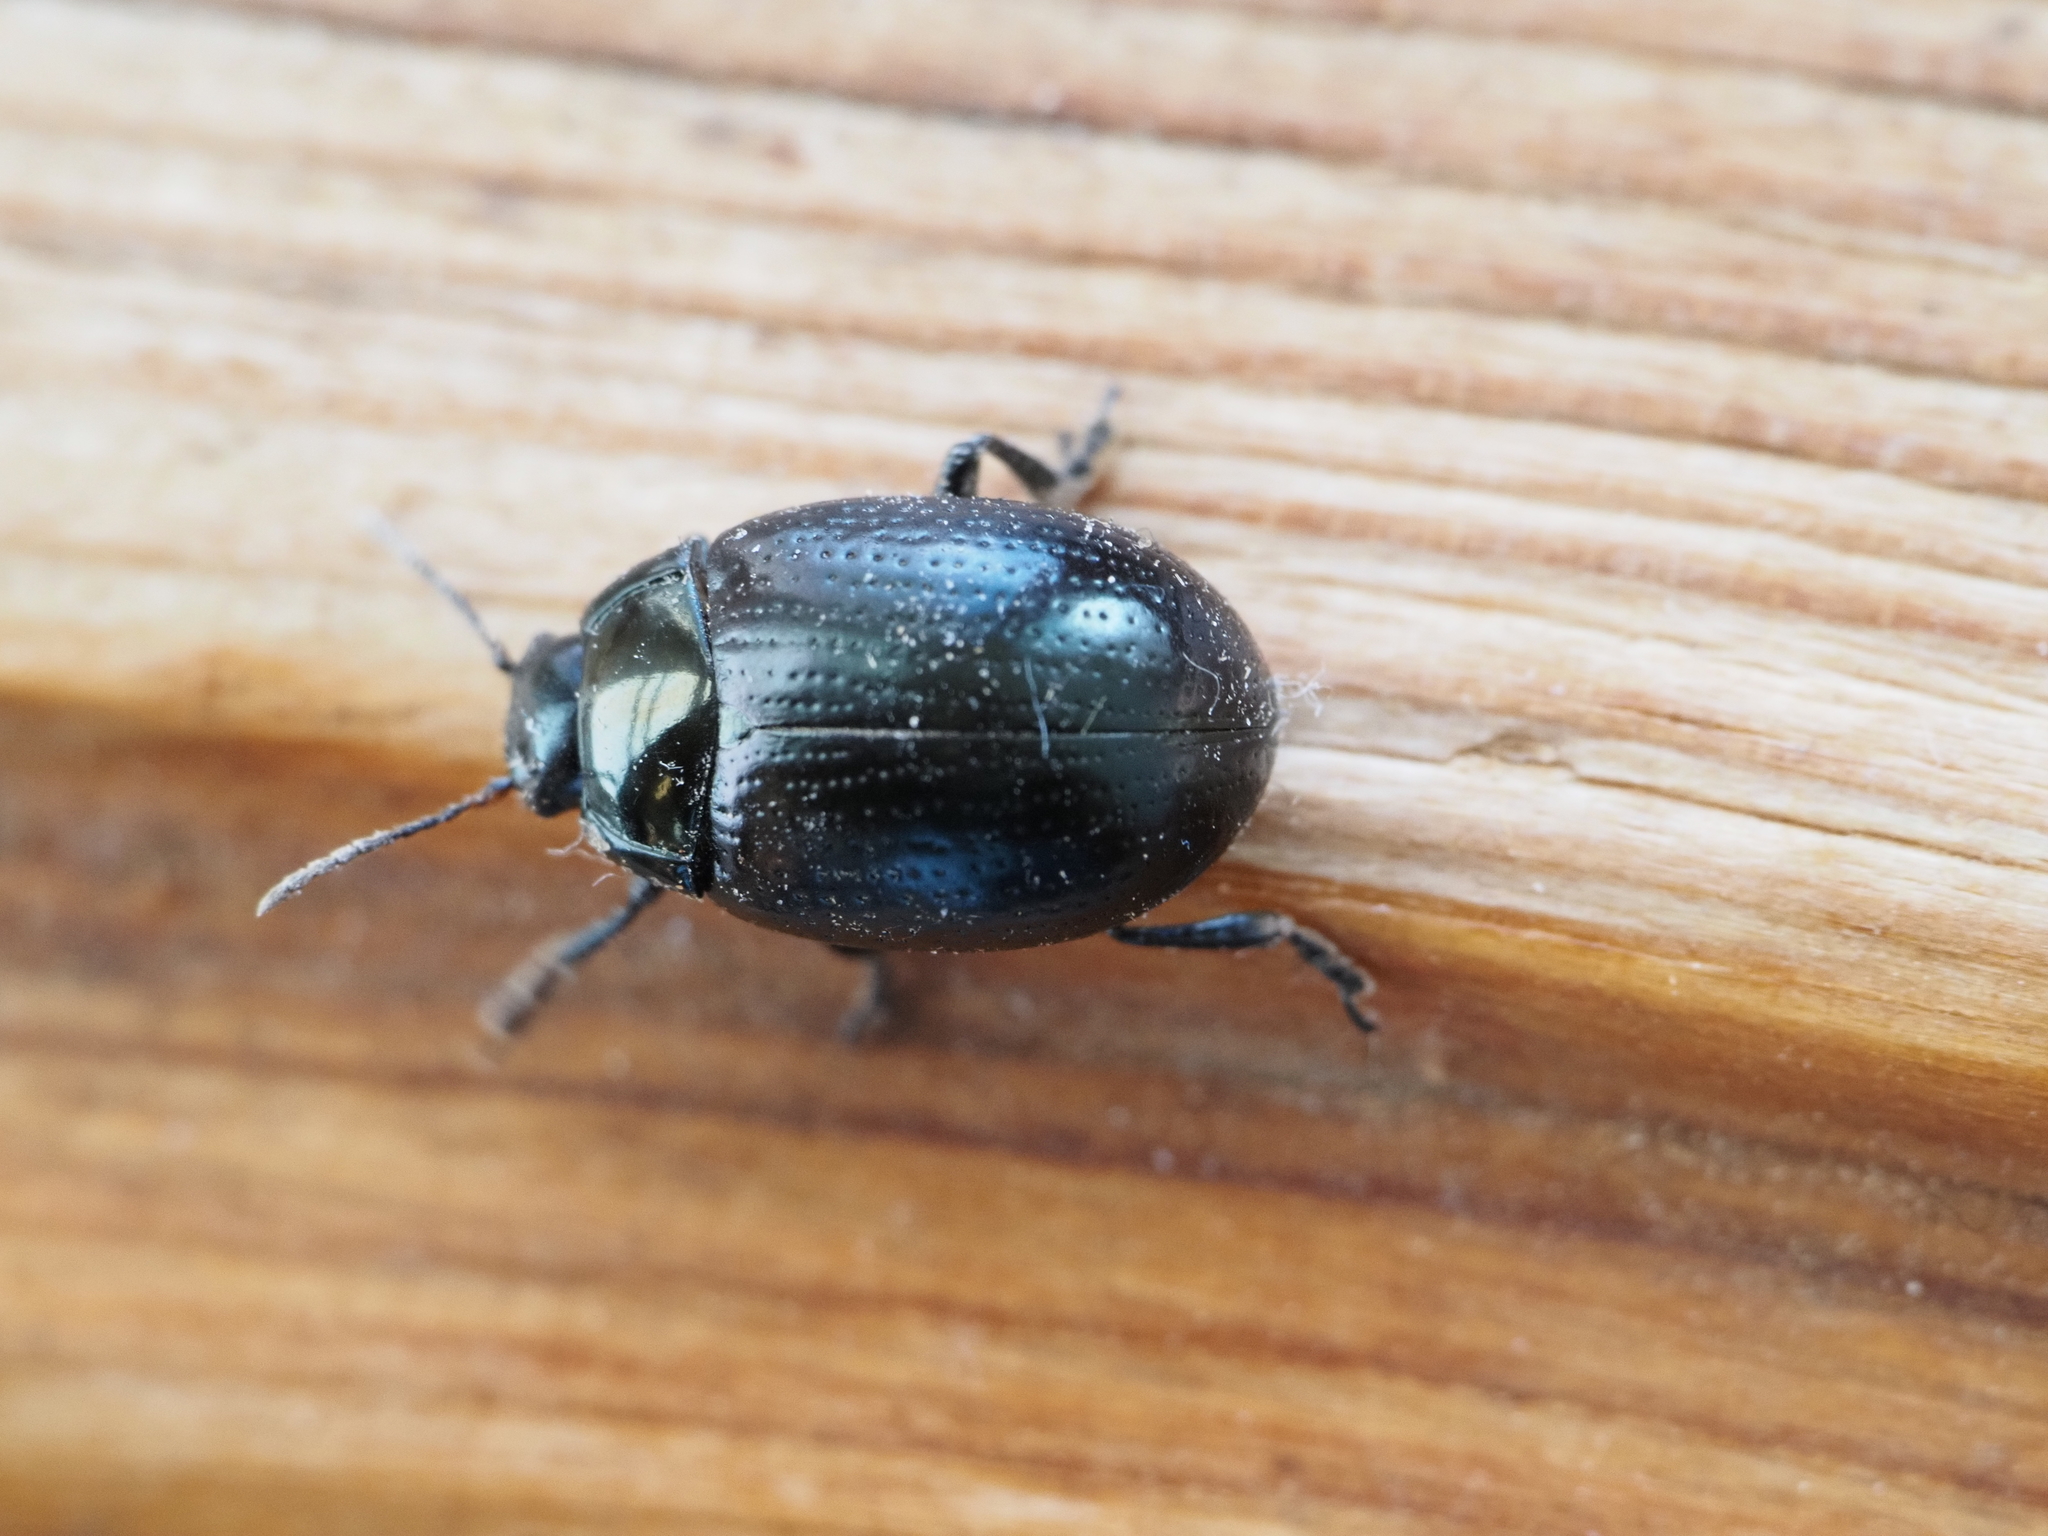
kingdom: Animalia
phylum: Arthropoda
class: Insecta
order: Coleoptera
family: Chrysomelidae
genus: Chrysolina
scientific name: Chrysolina oricalcia
